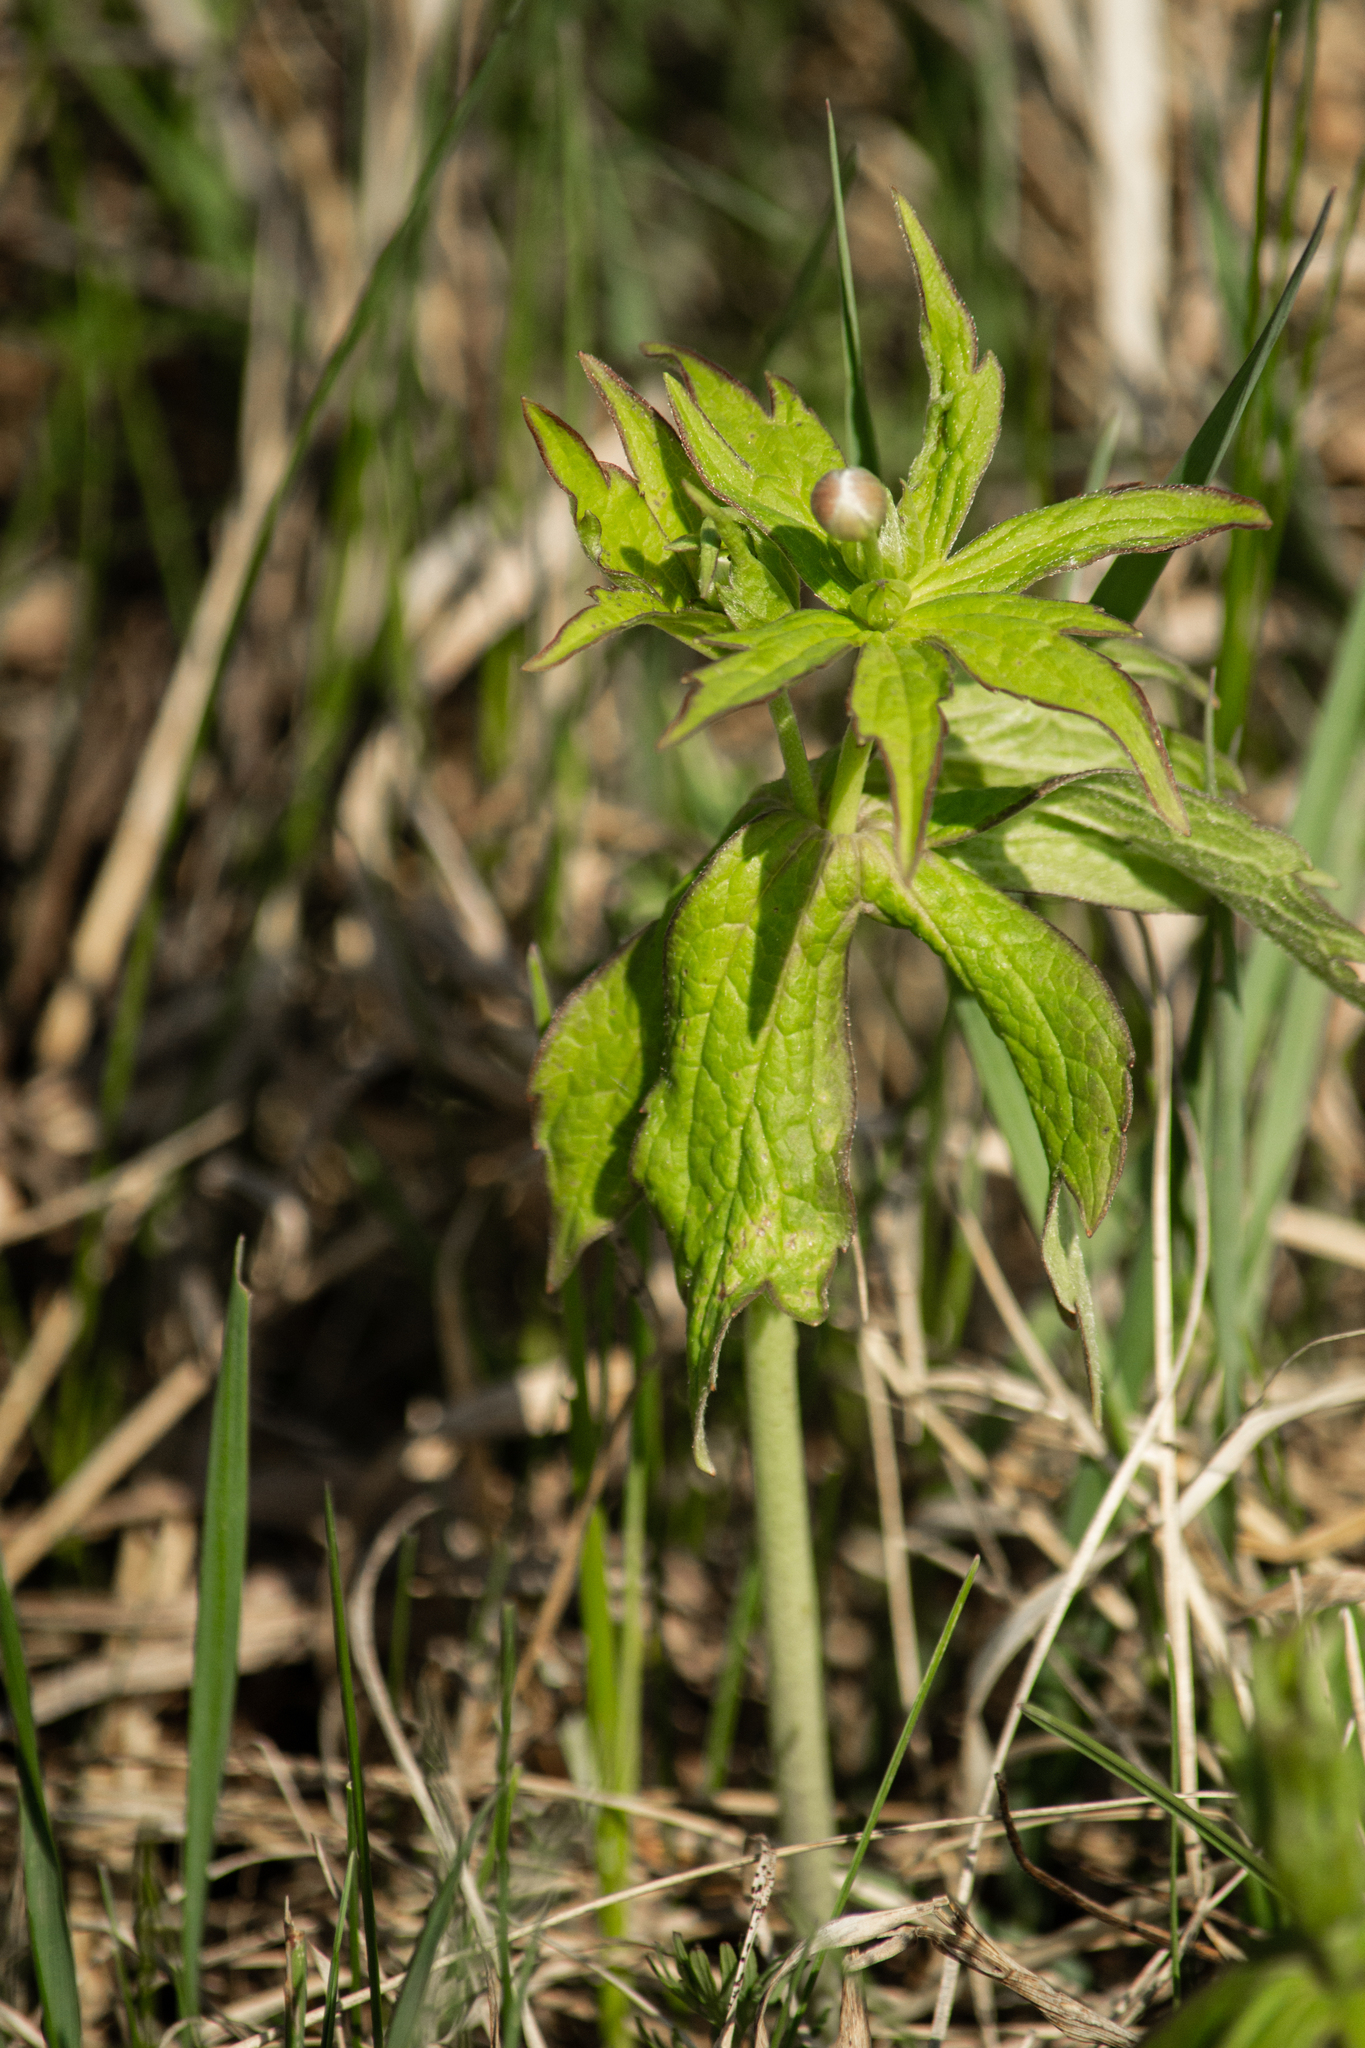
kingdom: Plantae
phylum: Tracheophyta
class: Magnoliopsida
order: Ranunculales
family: Ranunculaceae
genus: Anemonastrum
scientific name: Anemonastrum dichotomum
